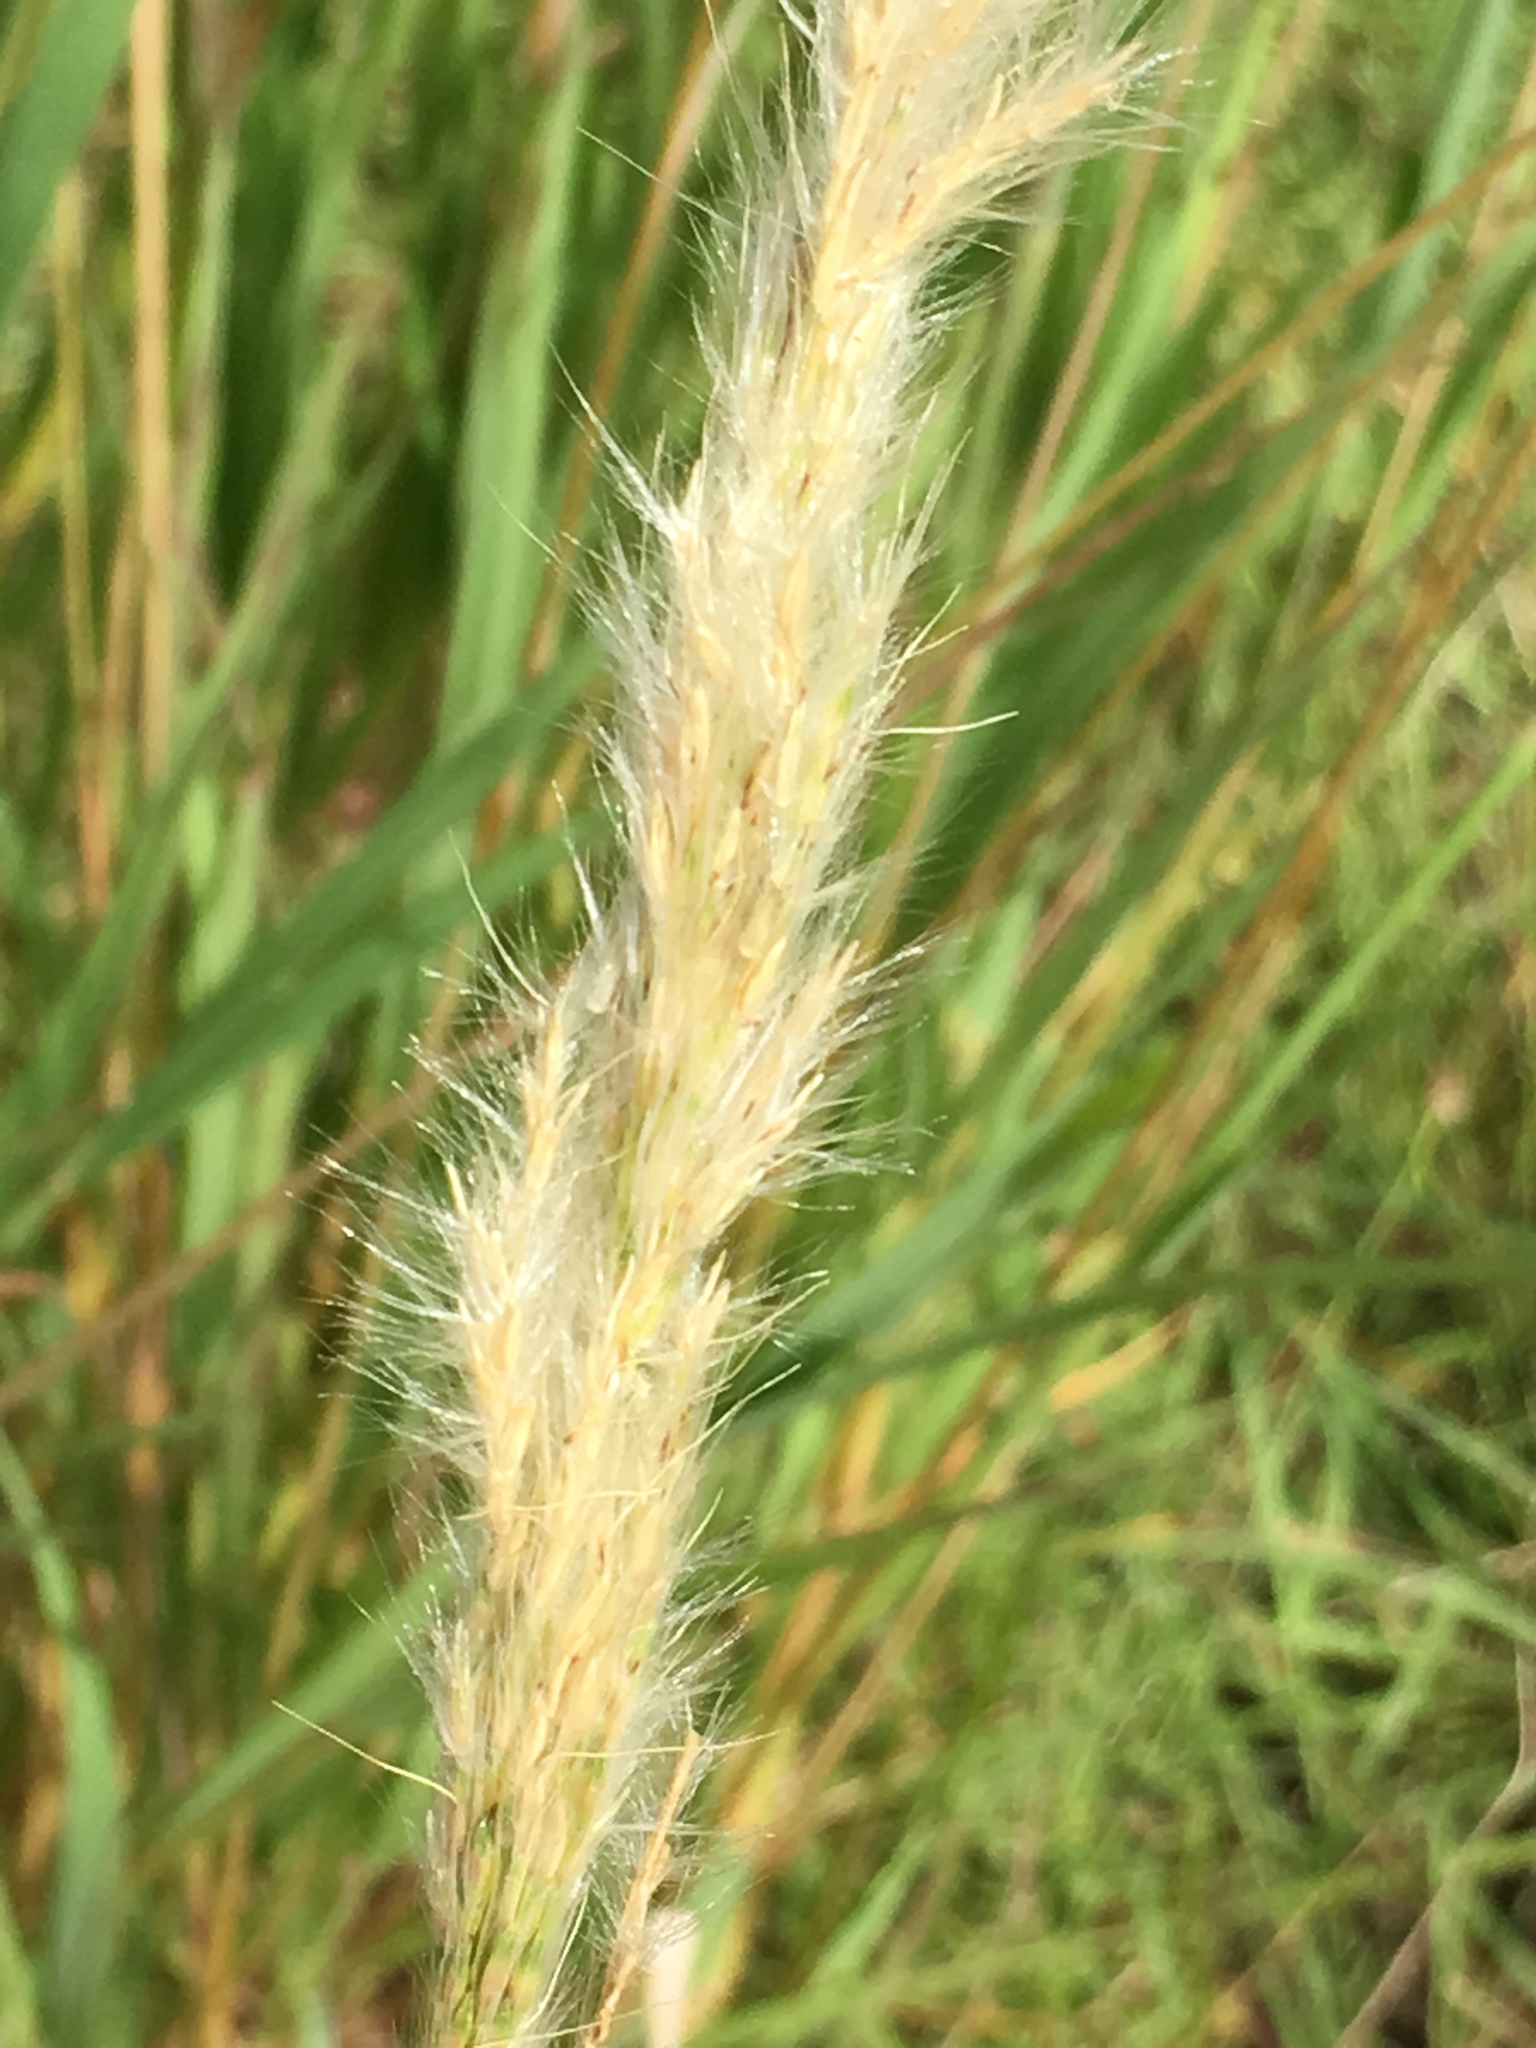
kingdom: Plantae
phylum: Tracheophyta
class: Liliopsida
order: Poales
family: Poaceae
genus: Bothriochloa
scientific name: Bothriochloa torreyana
